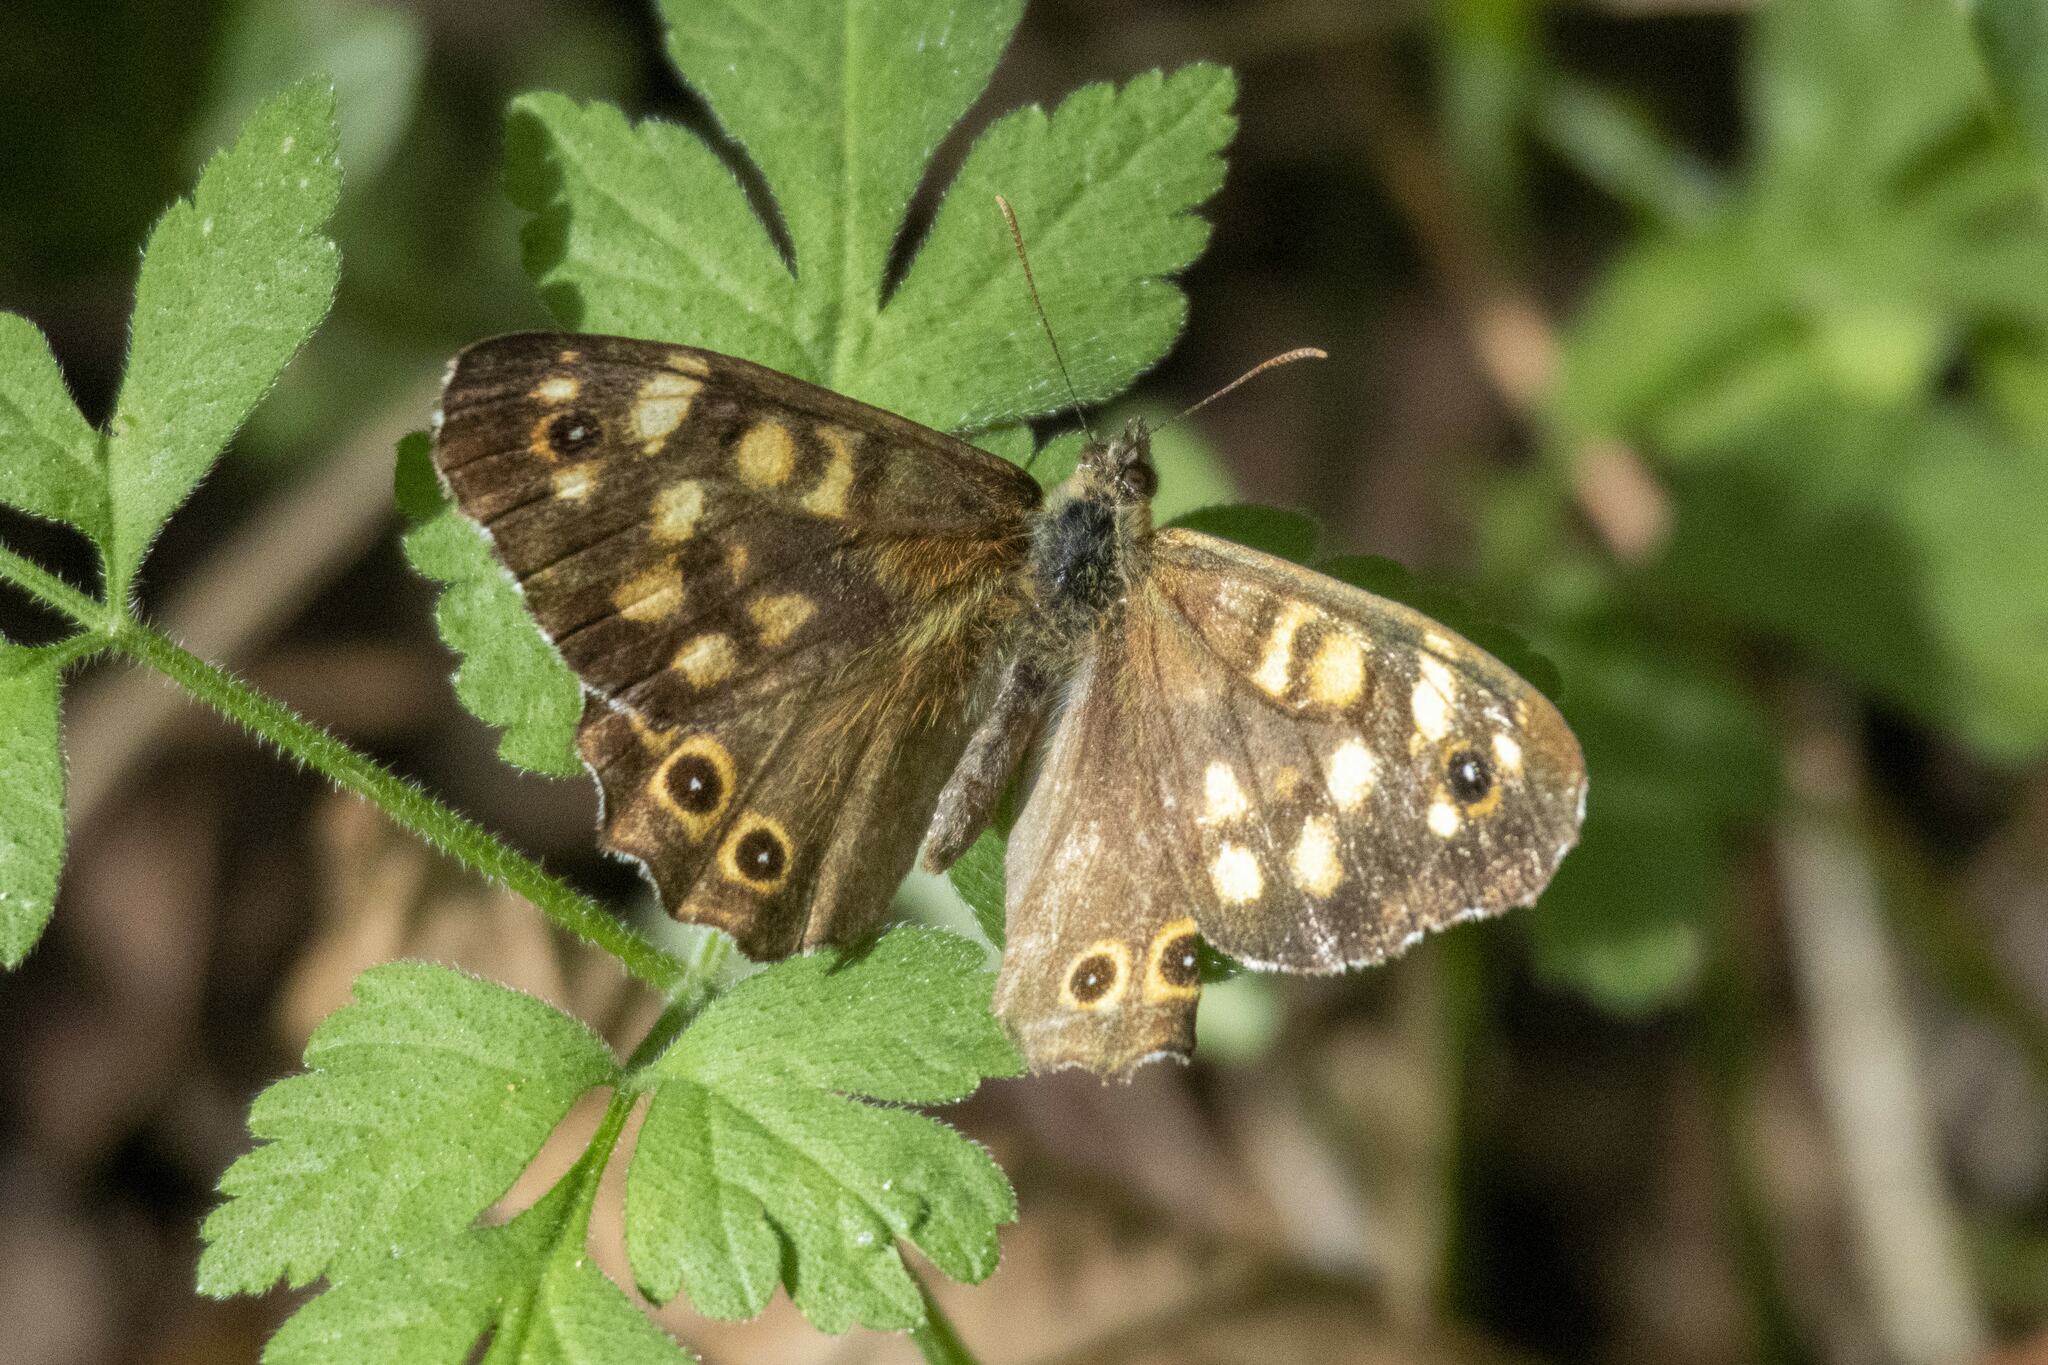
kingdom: Animalia
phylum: Arthropoda
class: Insecta
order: Lepidoptera
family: Nymphalidae
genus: Pararge
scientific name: Pararge aegeria
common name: Speckled wood
